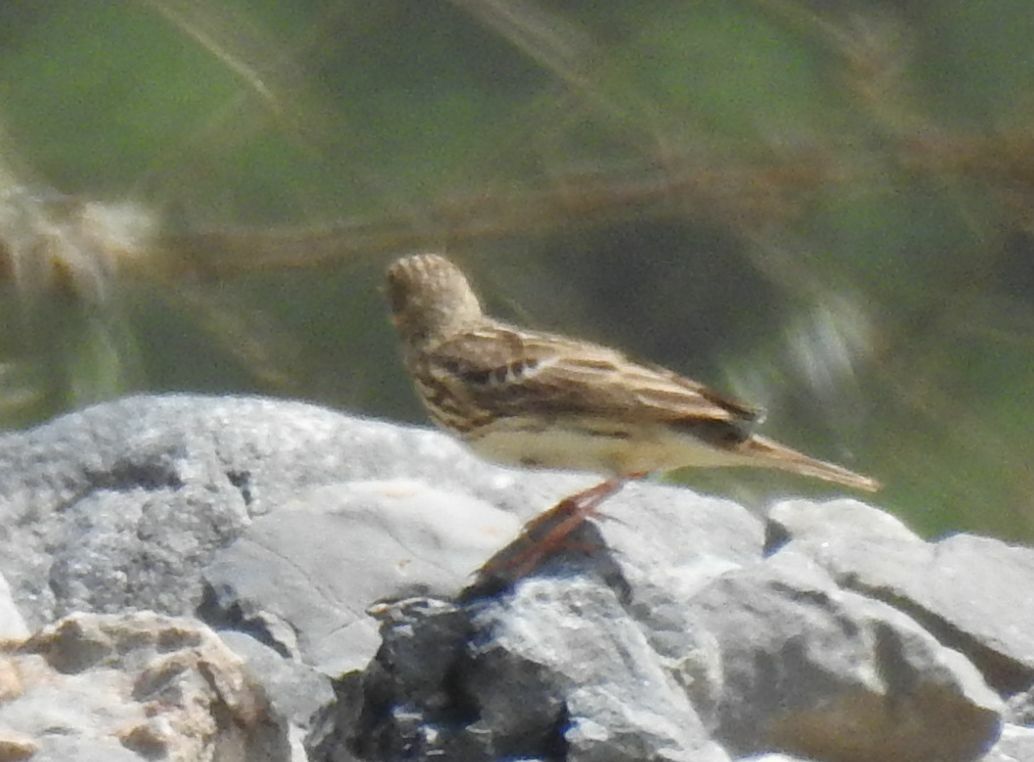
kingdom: Animalia
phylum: Chordata
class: Aves
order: Passeriformes
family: Motacillidae
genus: Anthus
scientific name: Anthus cervinus
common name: Red-throated pipit
